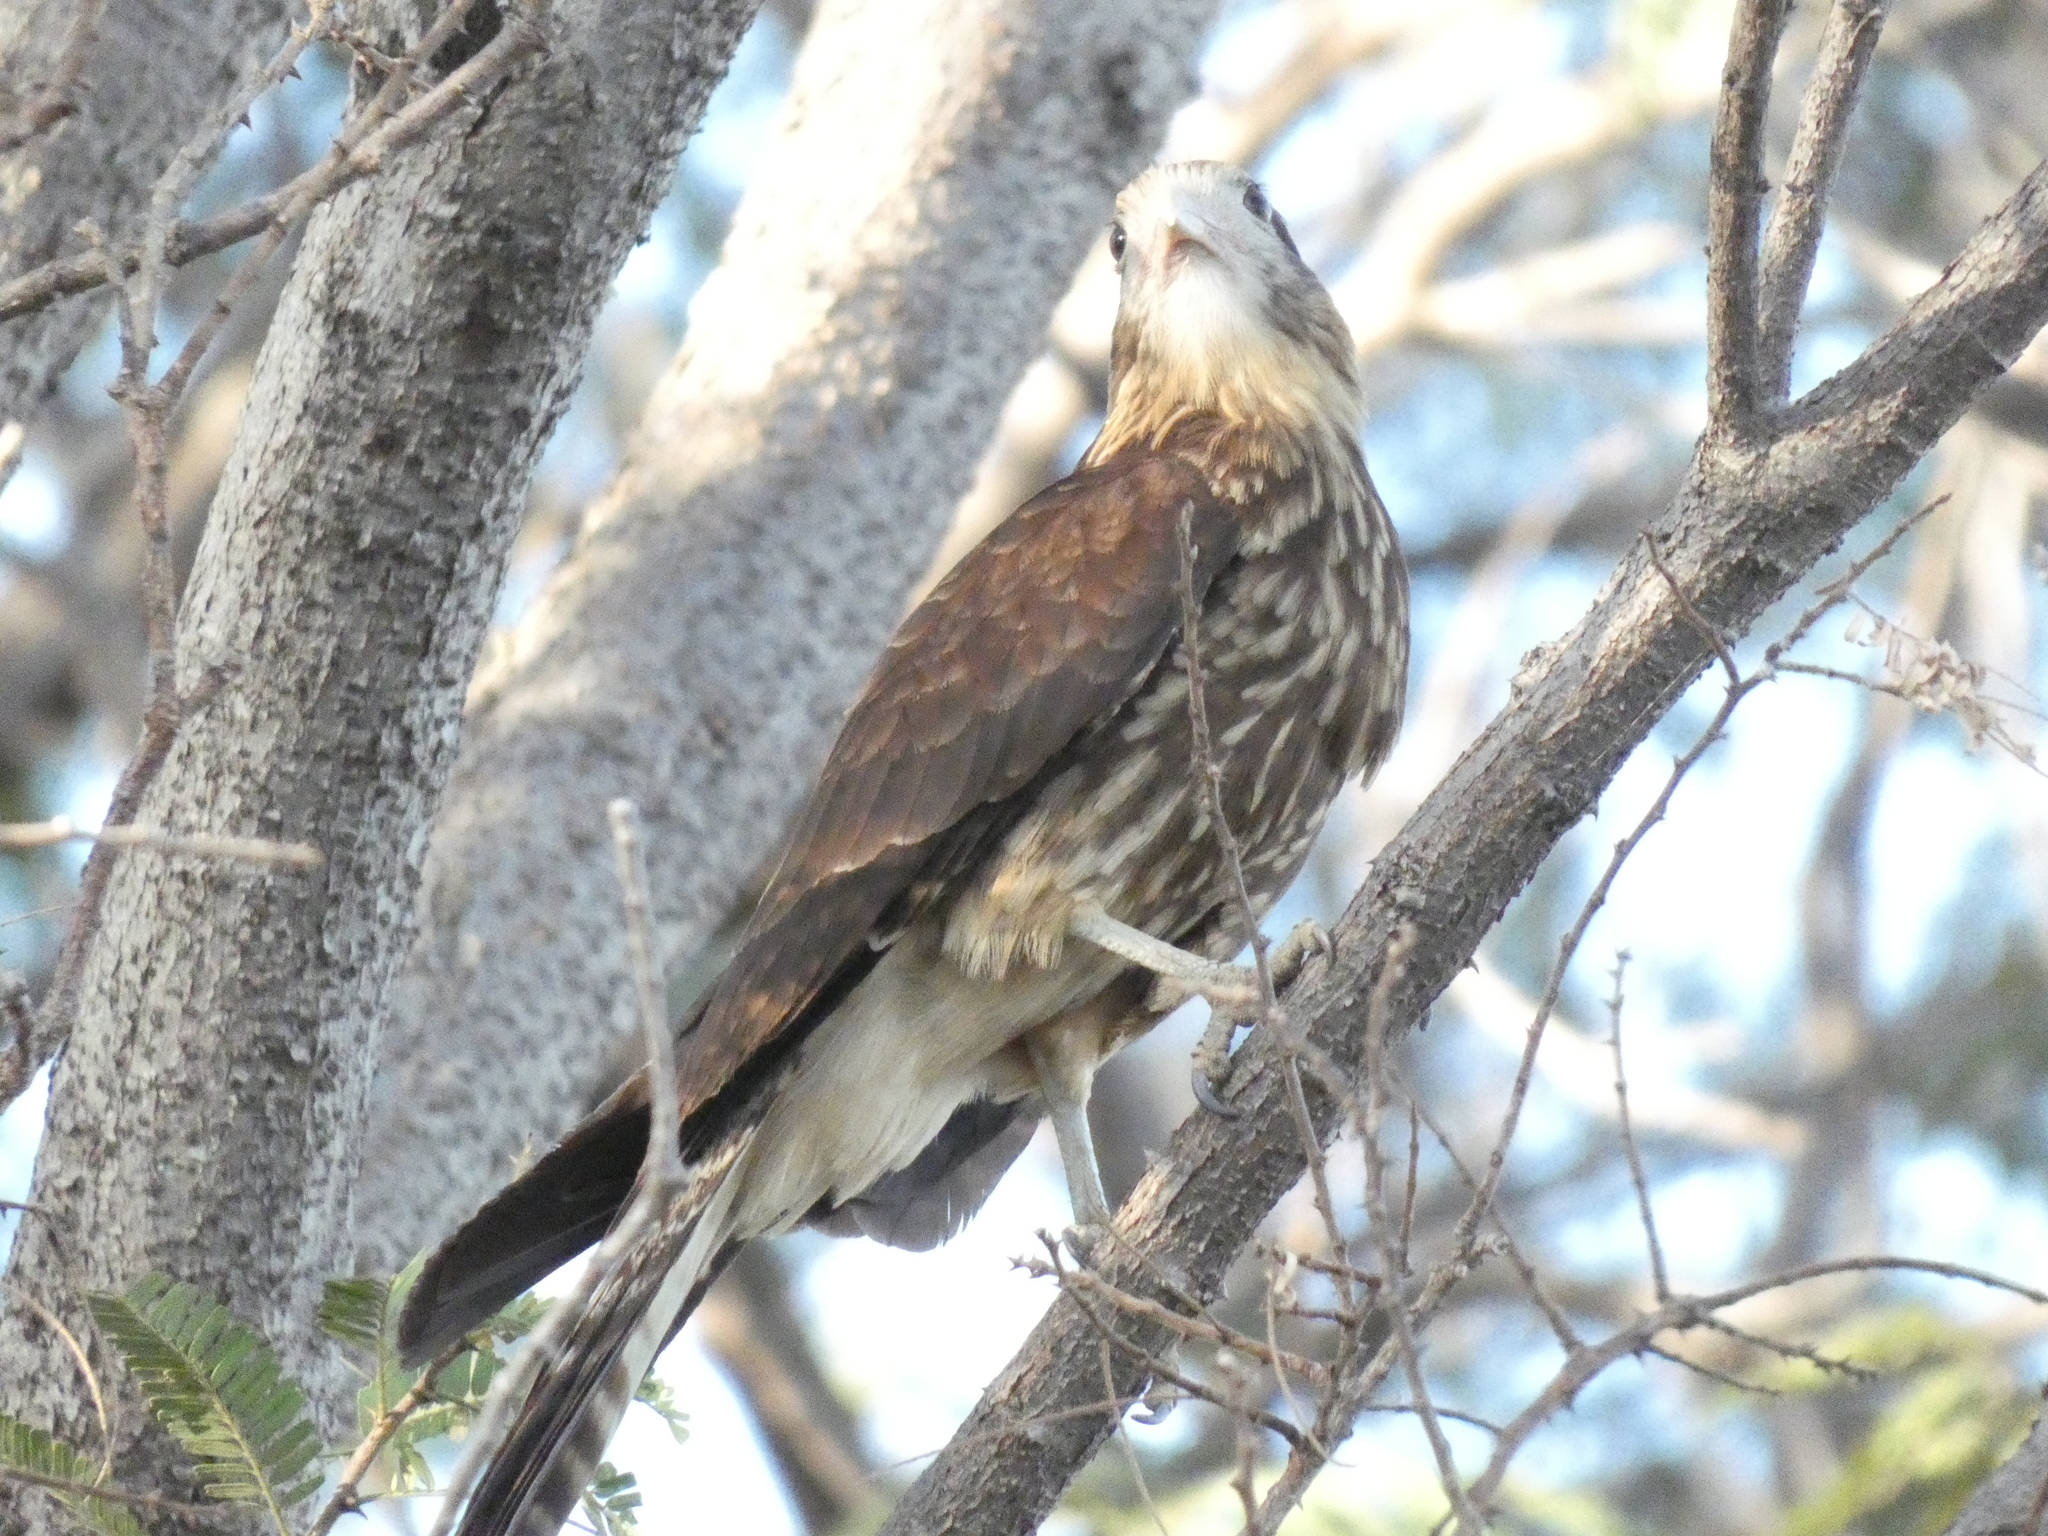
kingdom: Animalia
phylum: Chordata
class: Aves
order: Falconiformes
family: Falconidae
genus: Daptrius
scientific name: Daptrius
